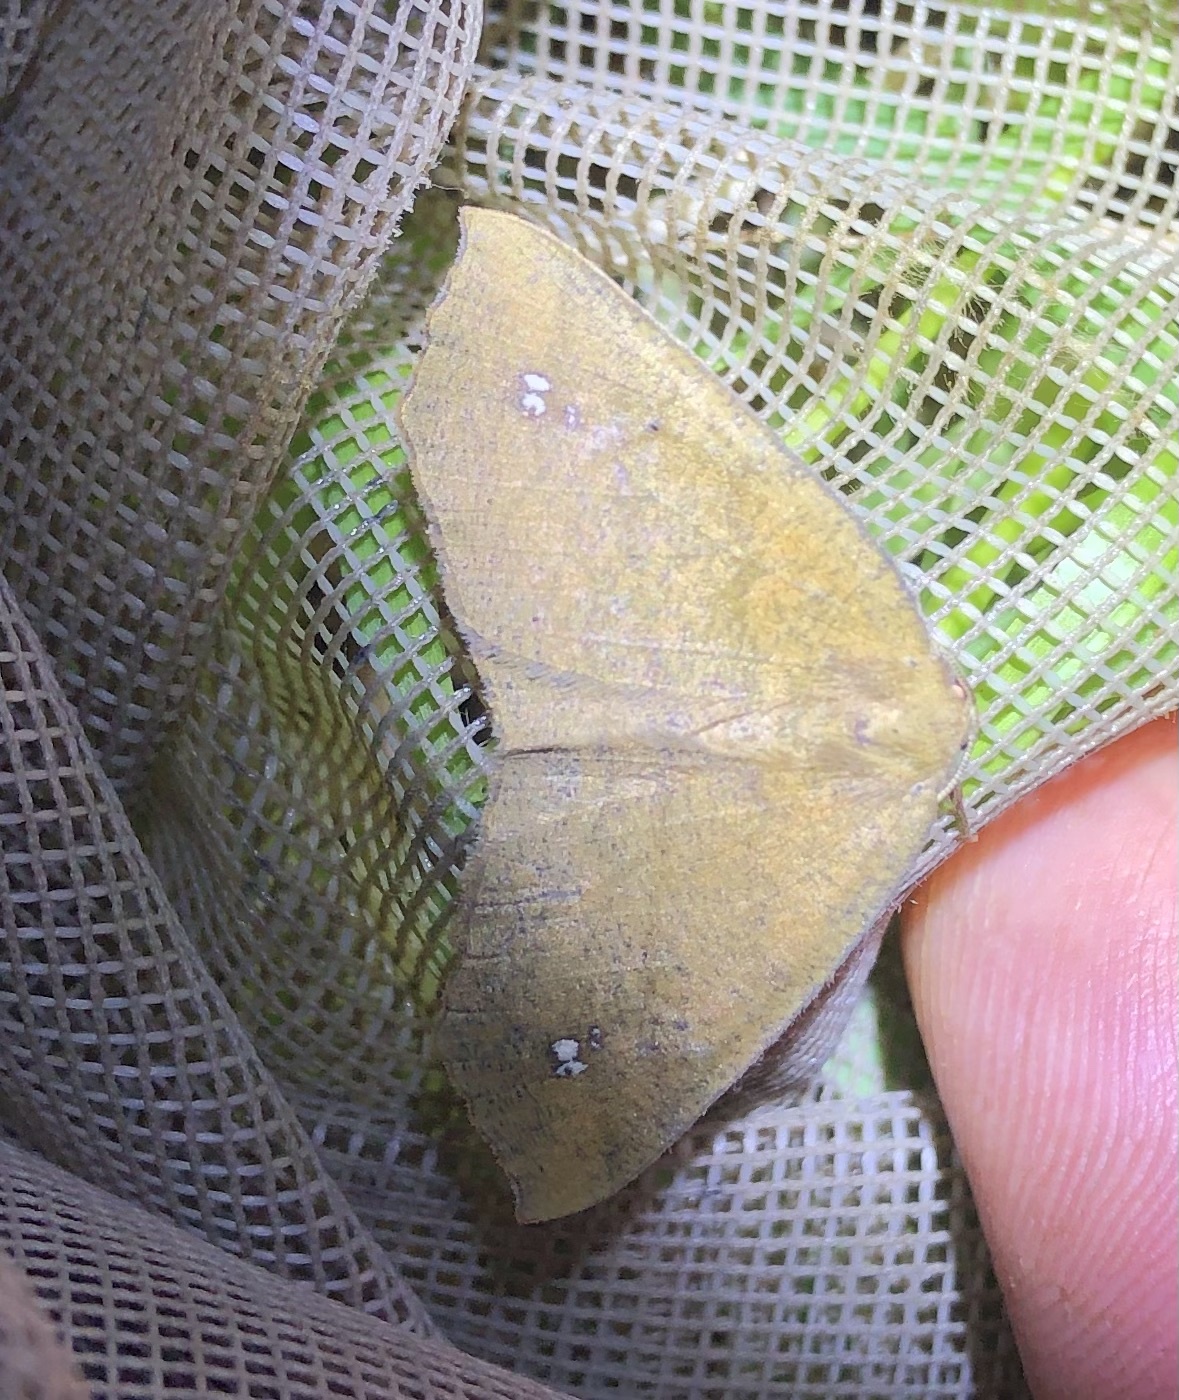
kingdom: Animalia
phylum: Arthropoda
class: Insecta
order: Lepidoptera
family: Geometridae
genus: Xyridacma
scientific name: Xyridacma ustaria
